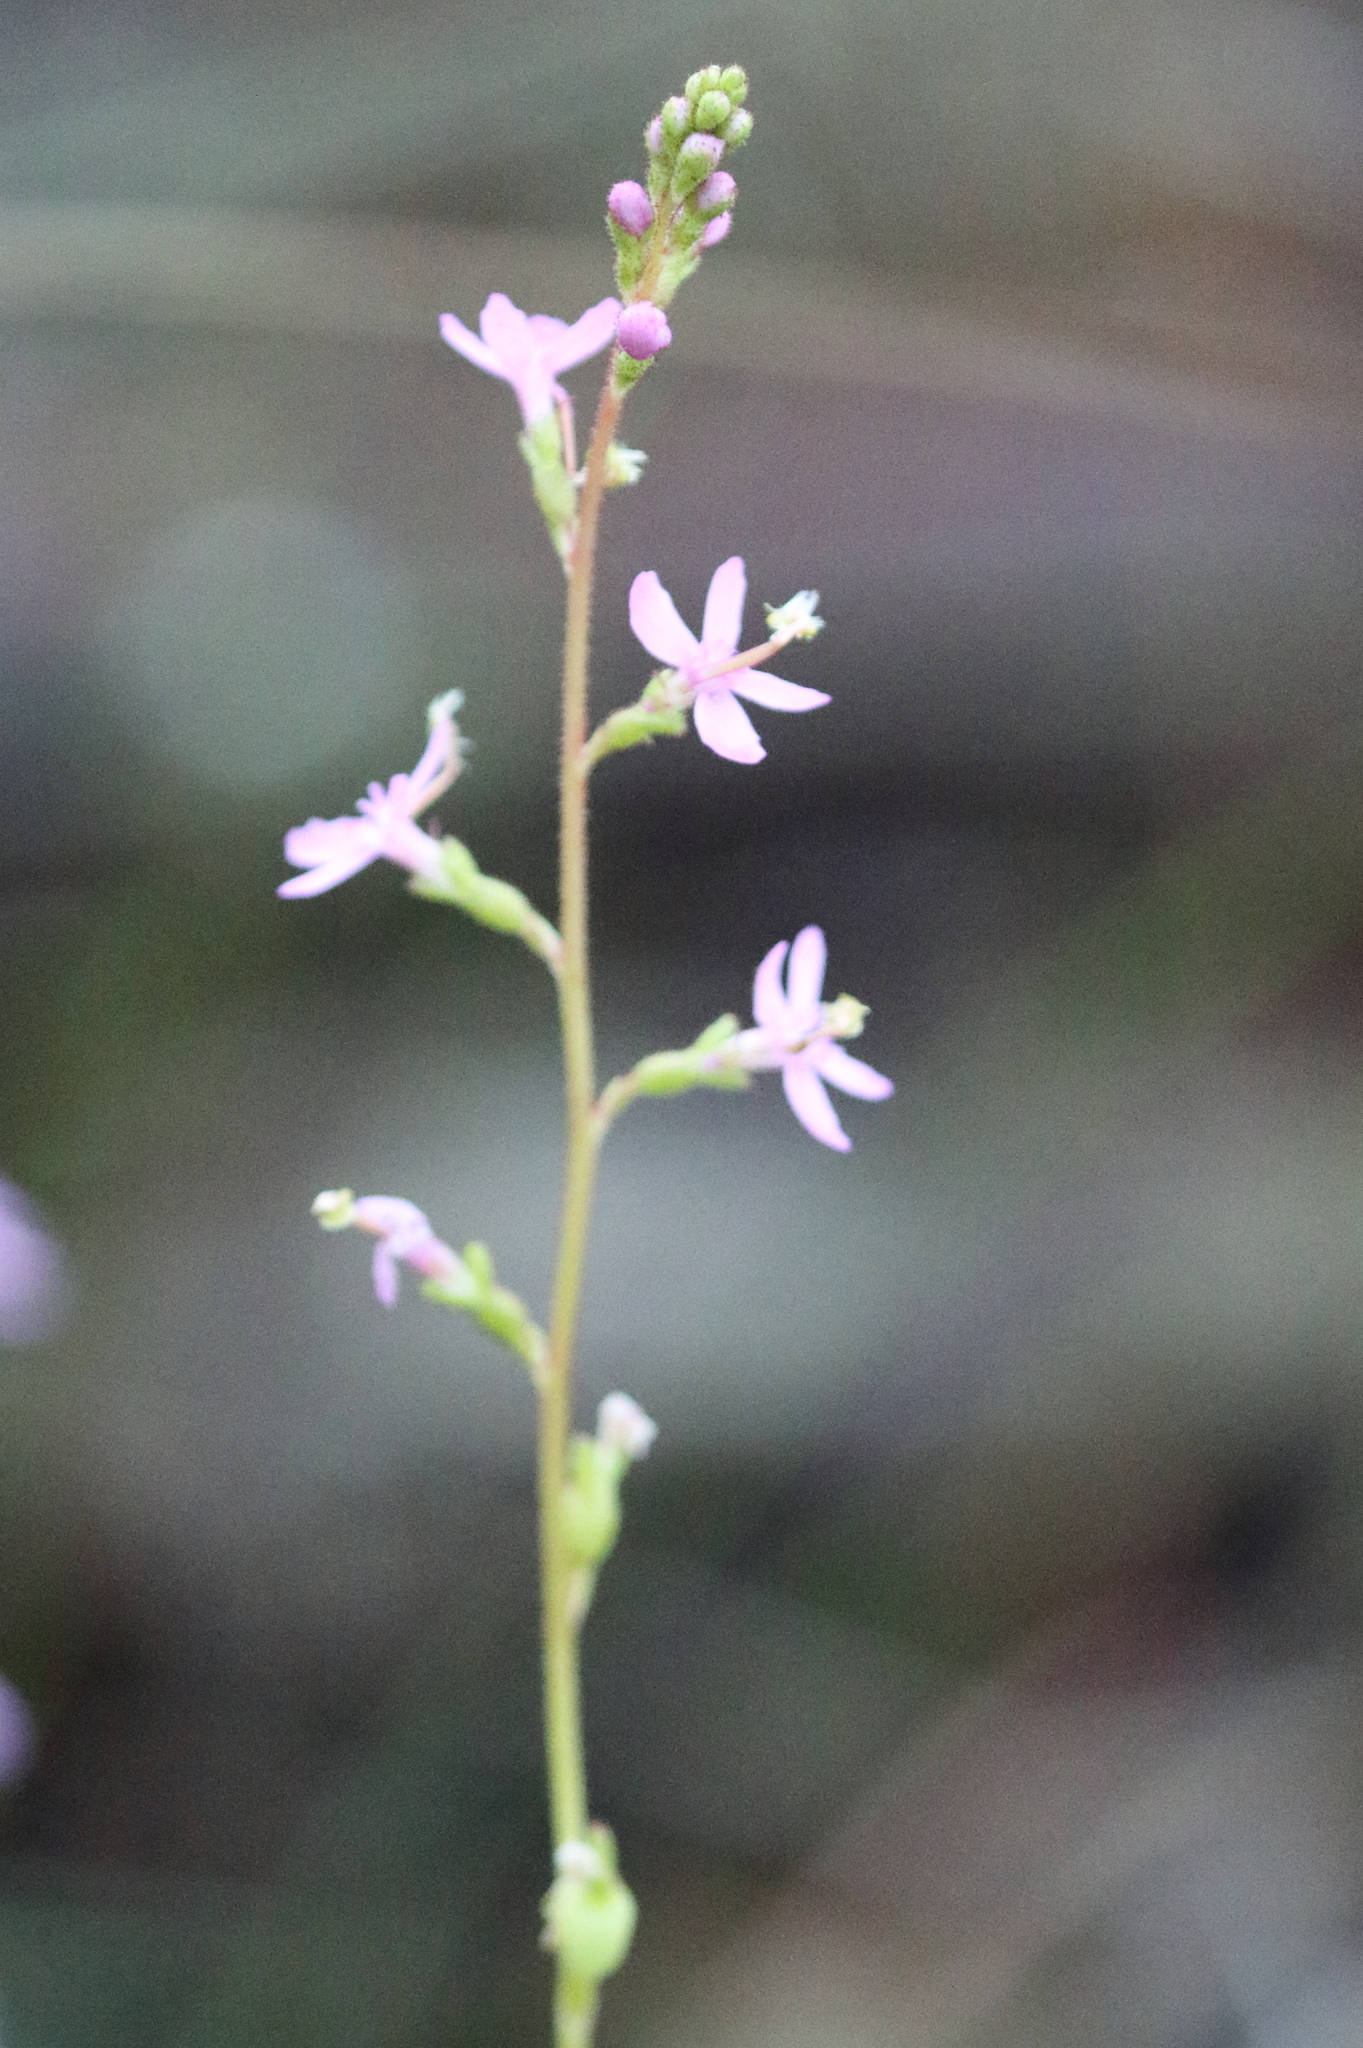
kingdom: Plantae
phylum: Tracheophyta
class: Magnoliopsida
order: Asterales
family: Stylidiaceae
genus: Stylidium
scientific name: Stylidium graminifolium
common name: Grass triggerplant
